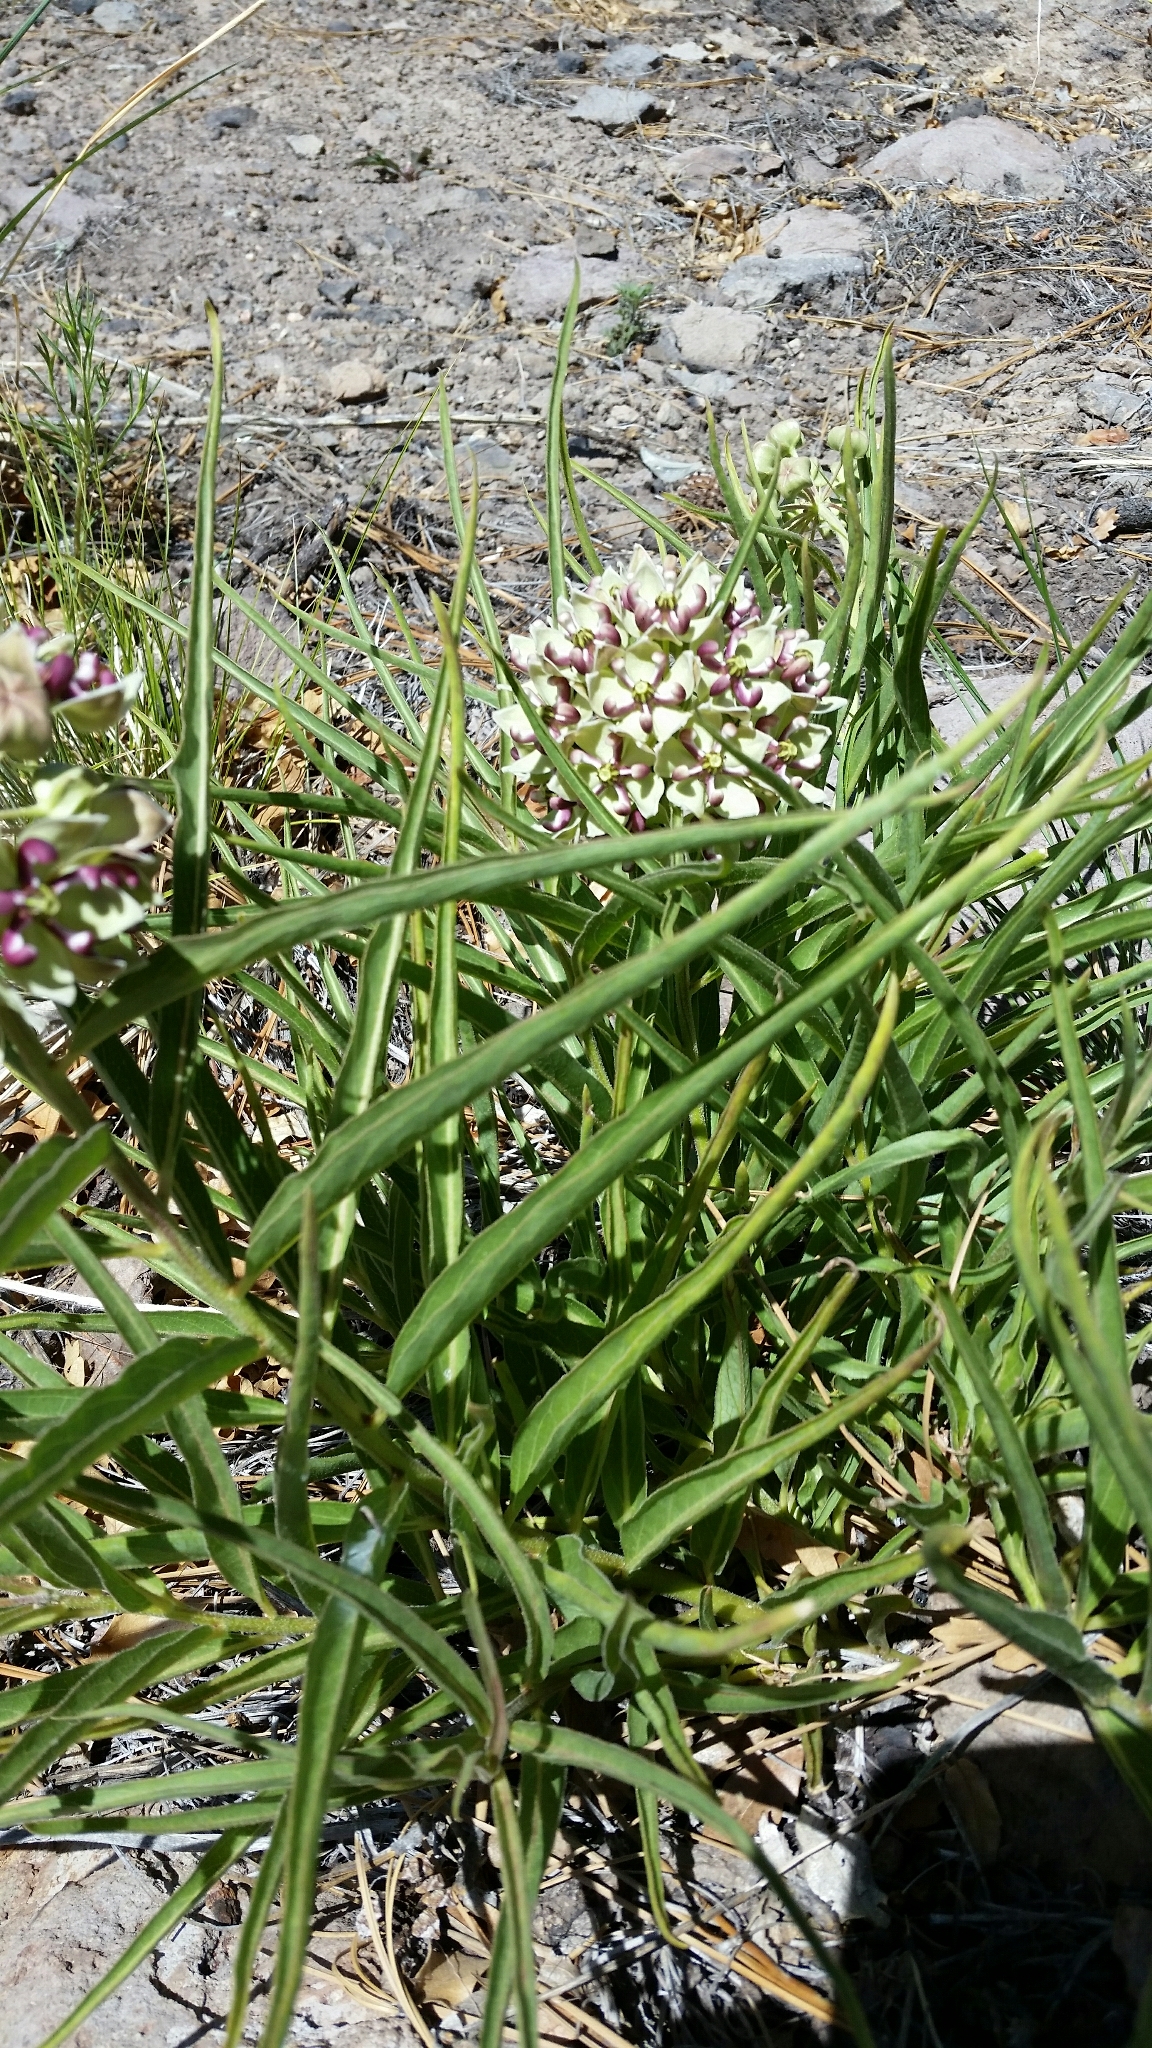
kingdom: Plantae
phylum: Tracheophyta
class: Magnoliopsida
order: Gentianales
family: Apocynaceae
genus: Asclepias
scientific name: Asclepias asperula
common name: Antelope horns
